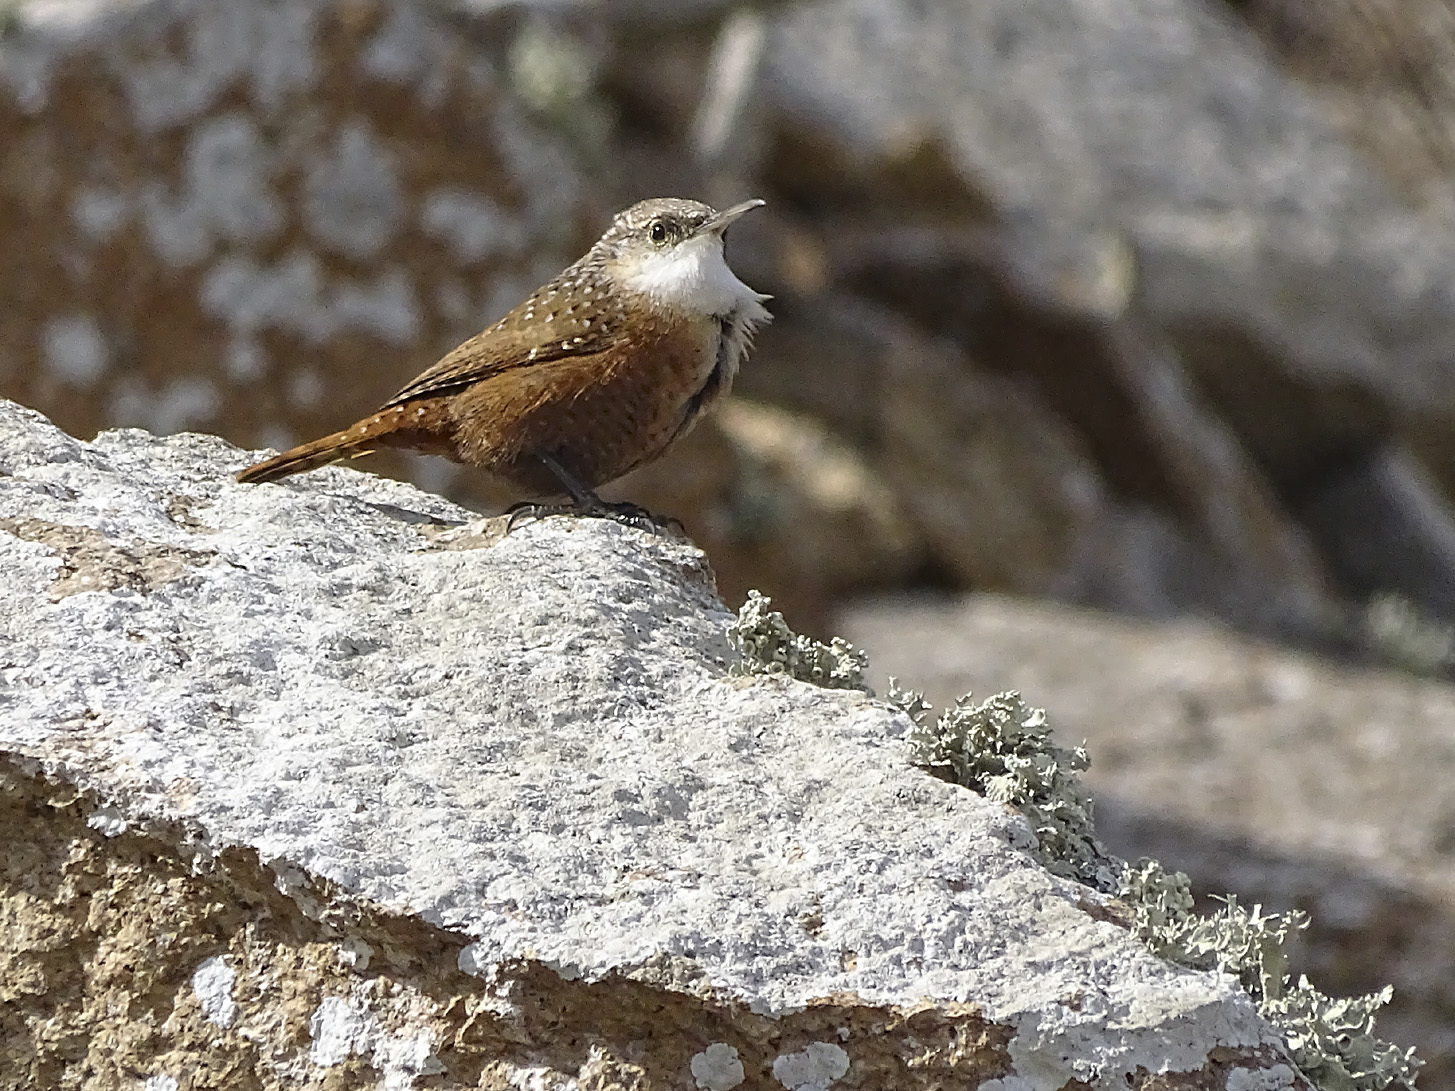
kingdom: Animalia
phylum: Chordata
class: Aves
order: Passeriformes
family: Troglodytidae
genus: Catherpes
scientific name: Catherpes mexicanus
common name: Canyon wren
